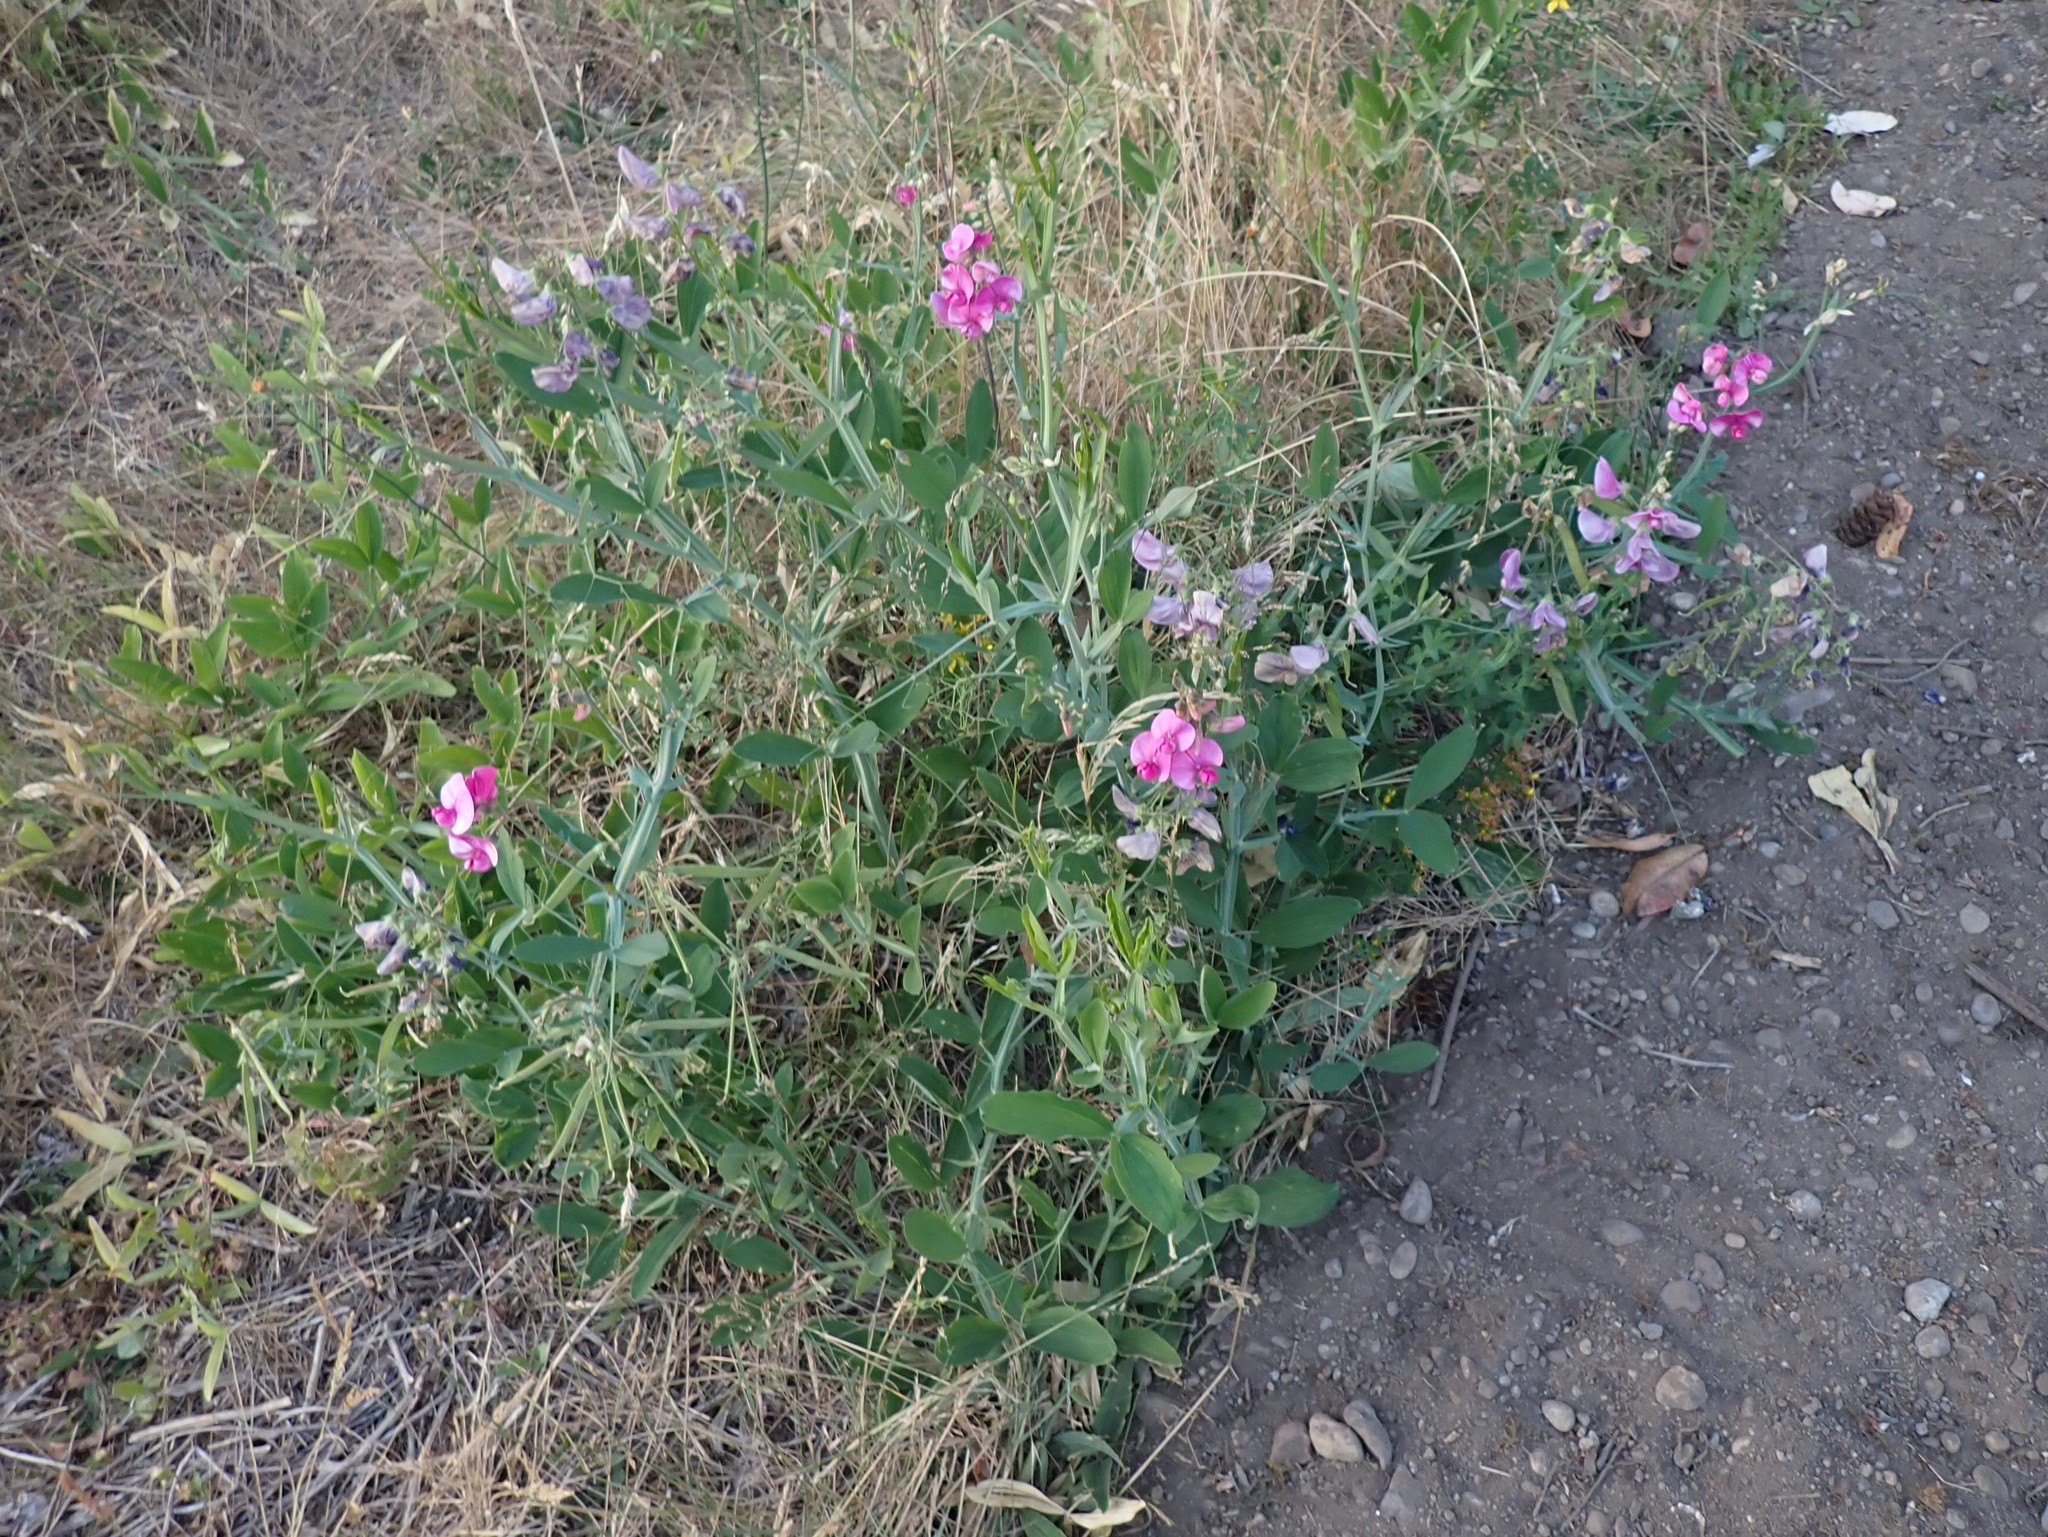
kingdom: Plantae
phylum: Tracheophyta
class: Magnoliopsida
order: Fabales
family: Fabaceae
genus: Lathyrus
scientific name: Lathyrus latifolius
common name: Perennial pea
